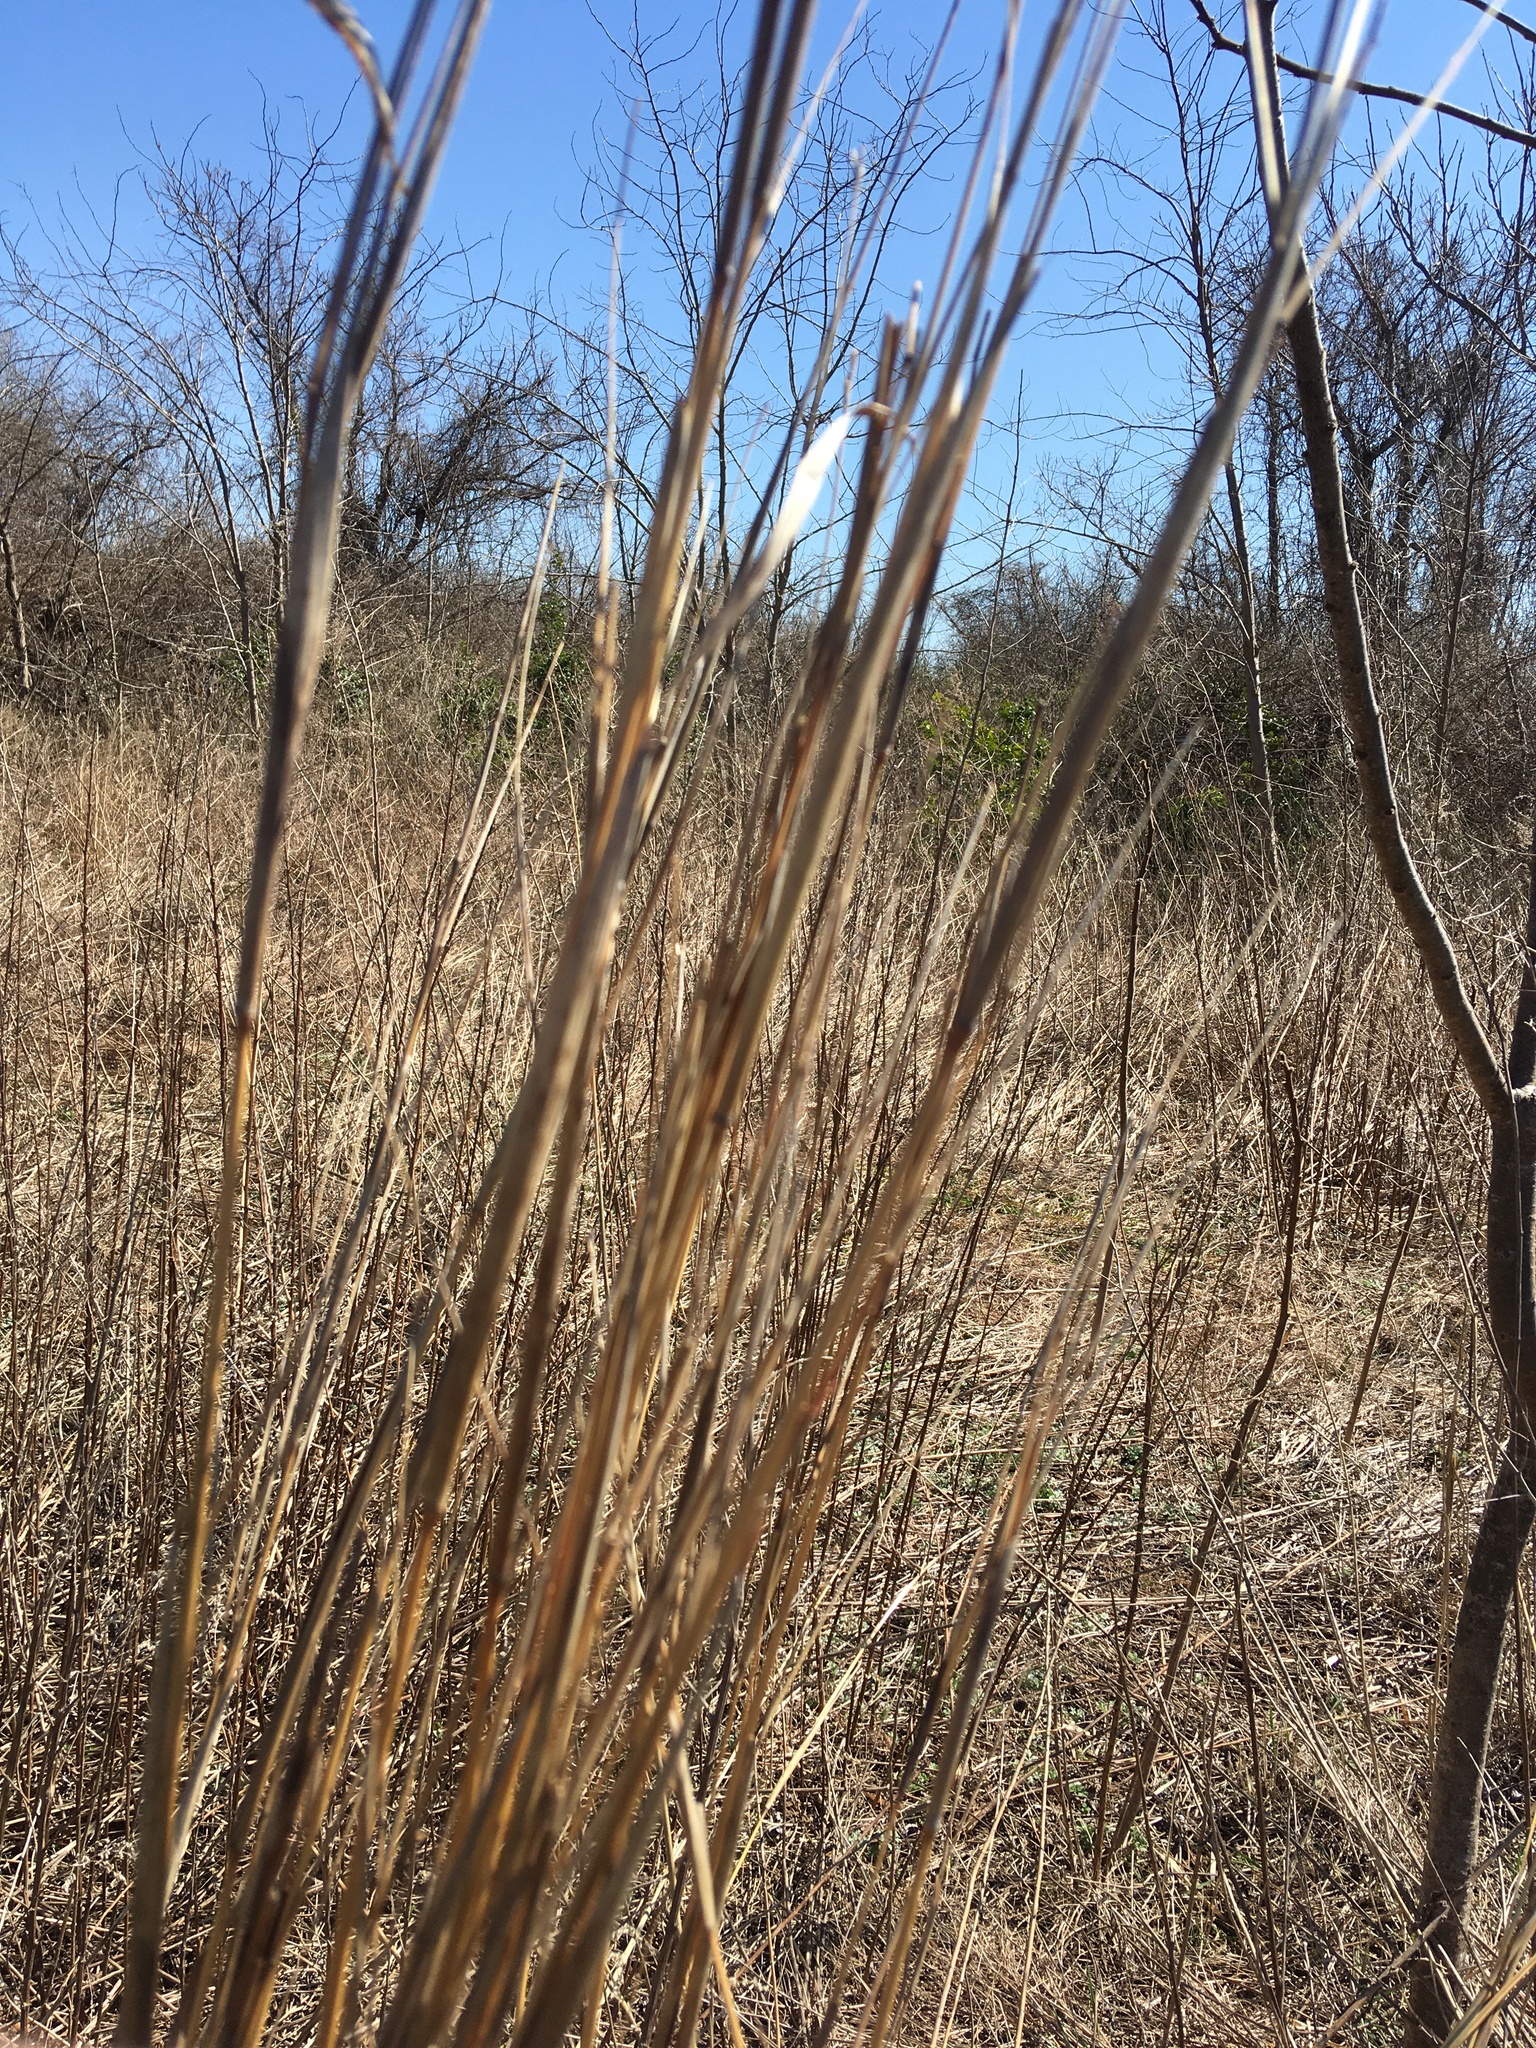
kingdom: Plantae
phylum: Tracheophyta
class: Liliopsida
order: Poales
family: Poaceae
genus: Andropogon
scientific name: Andropogon gerardi
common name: Big bluestem
